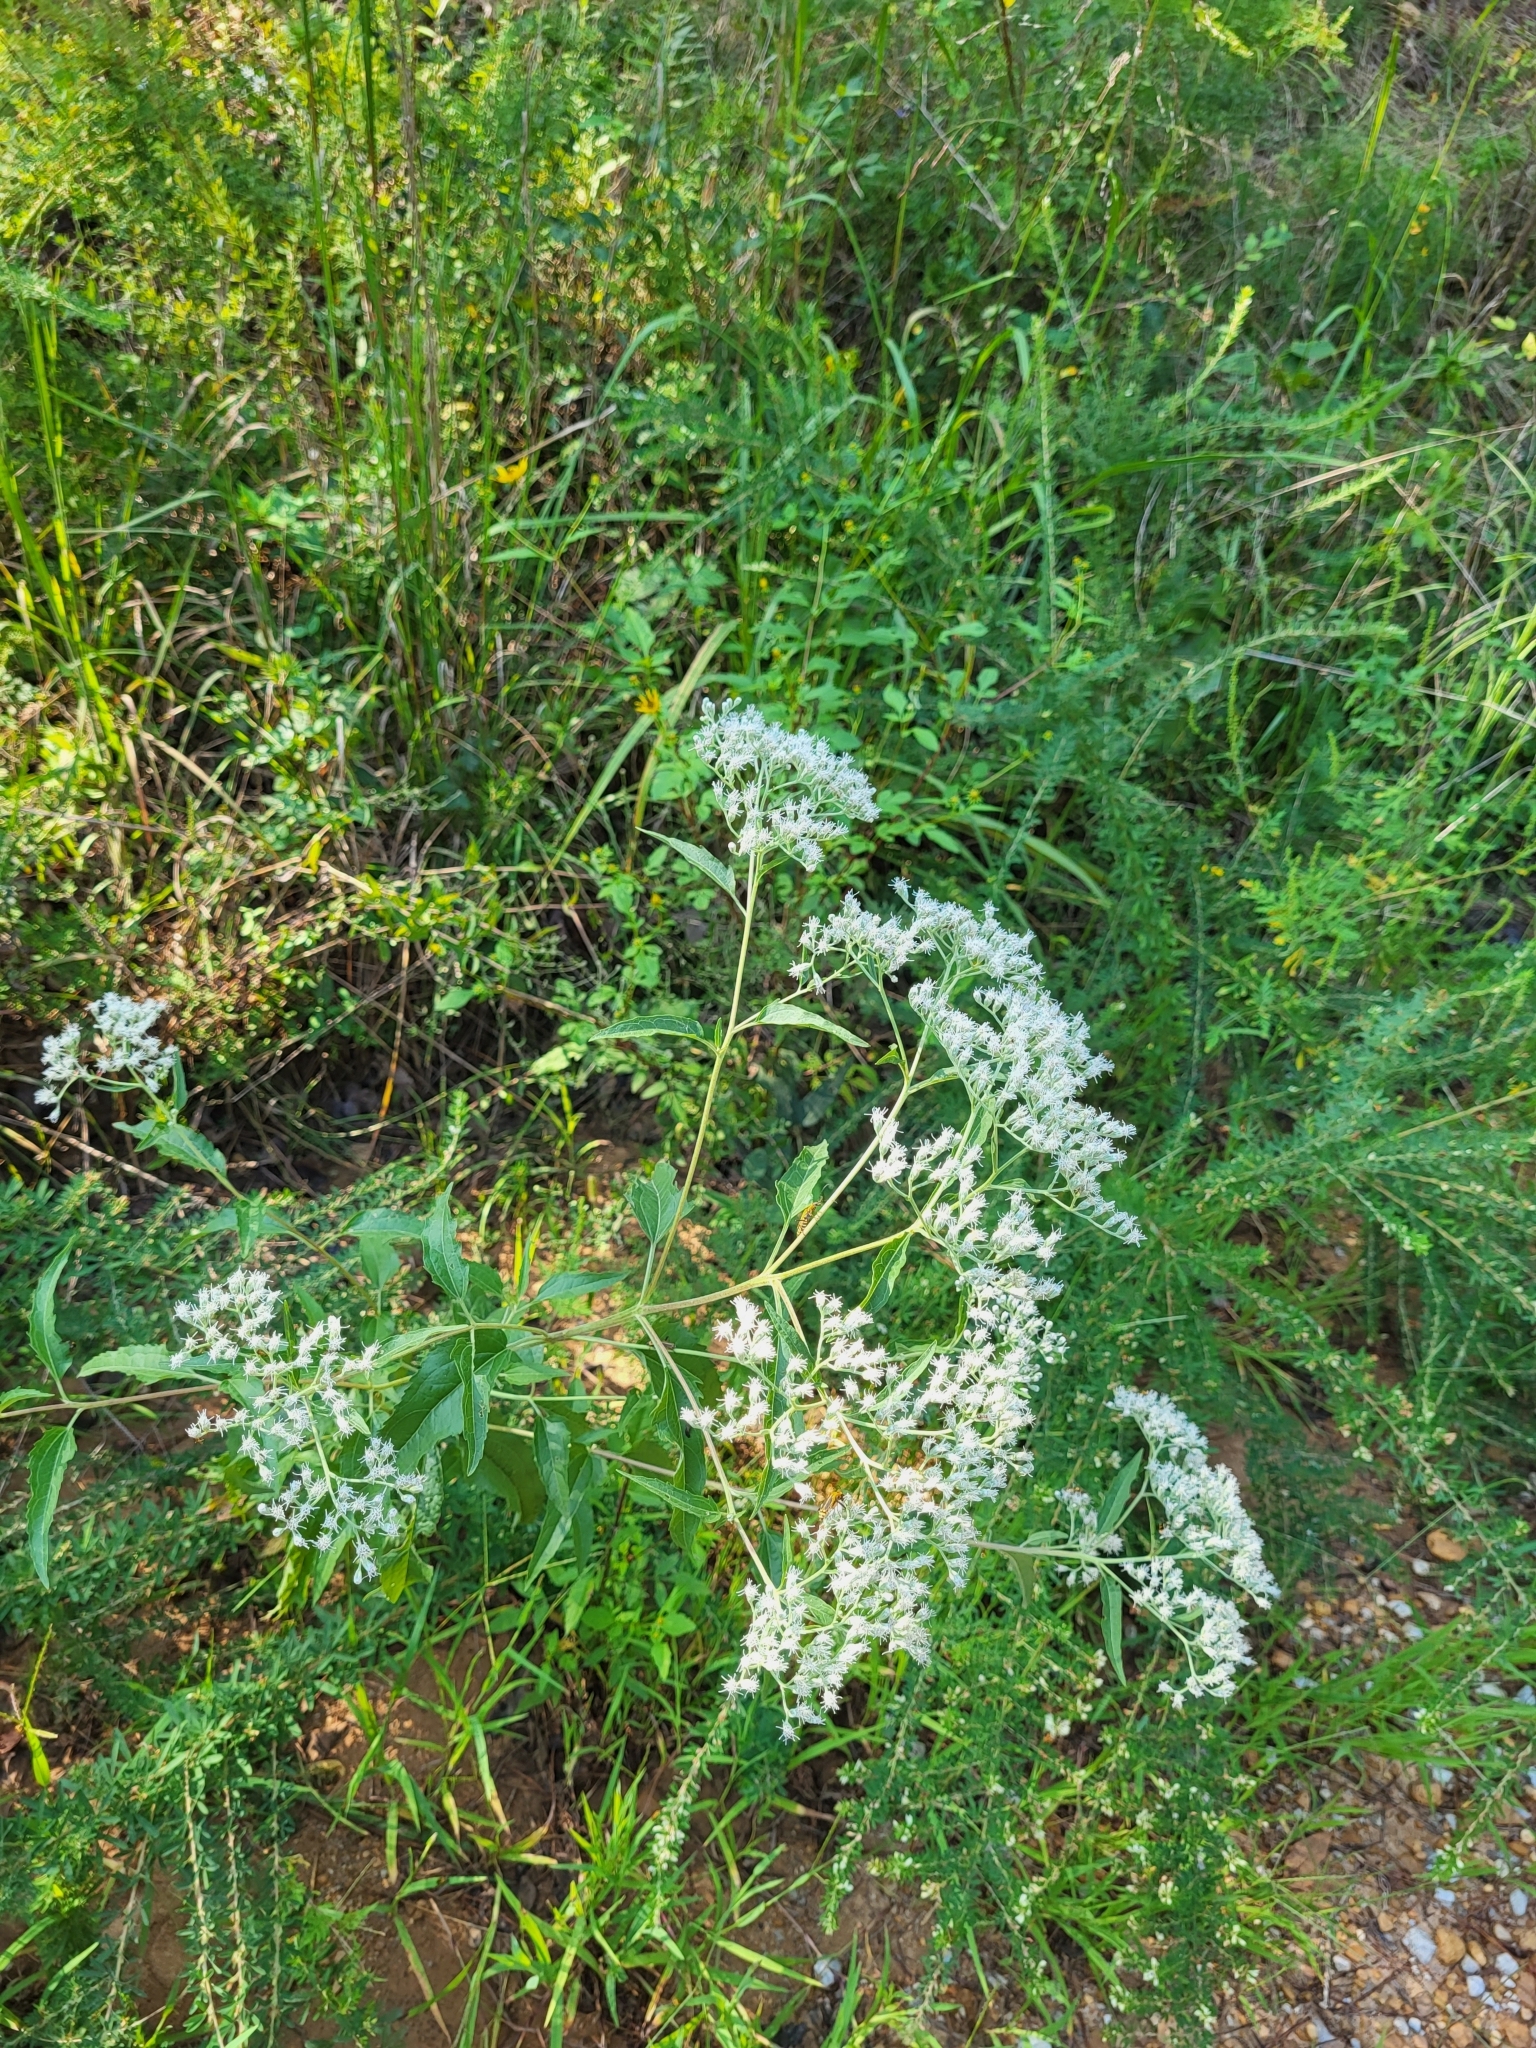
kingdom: Plantae
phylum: Tracheophyta
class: Magnoliopsida
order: Asterales
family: Asteraceae
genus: Eupatorium
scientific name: Eupatorium serotinum
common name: Late boneset
